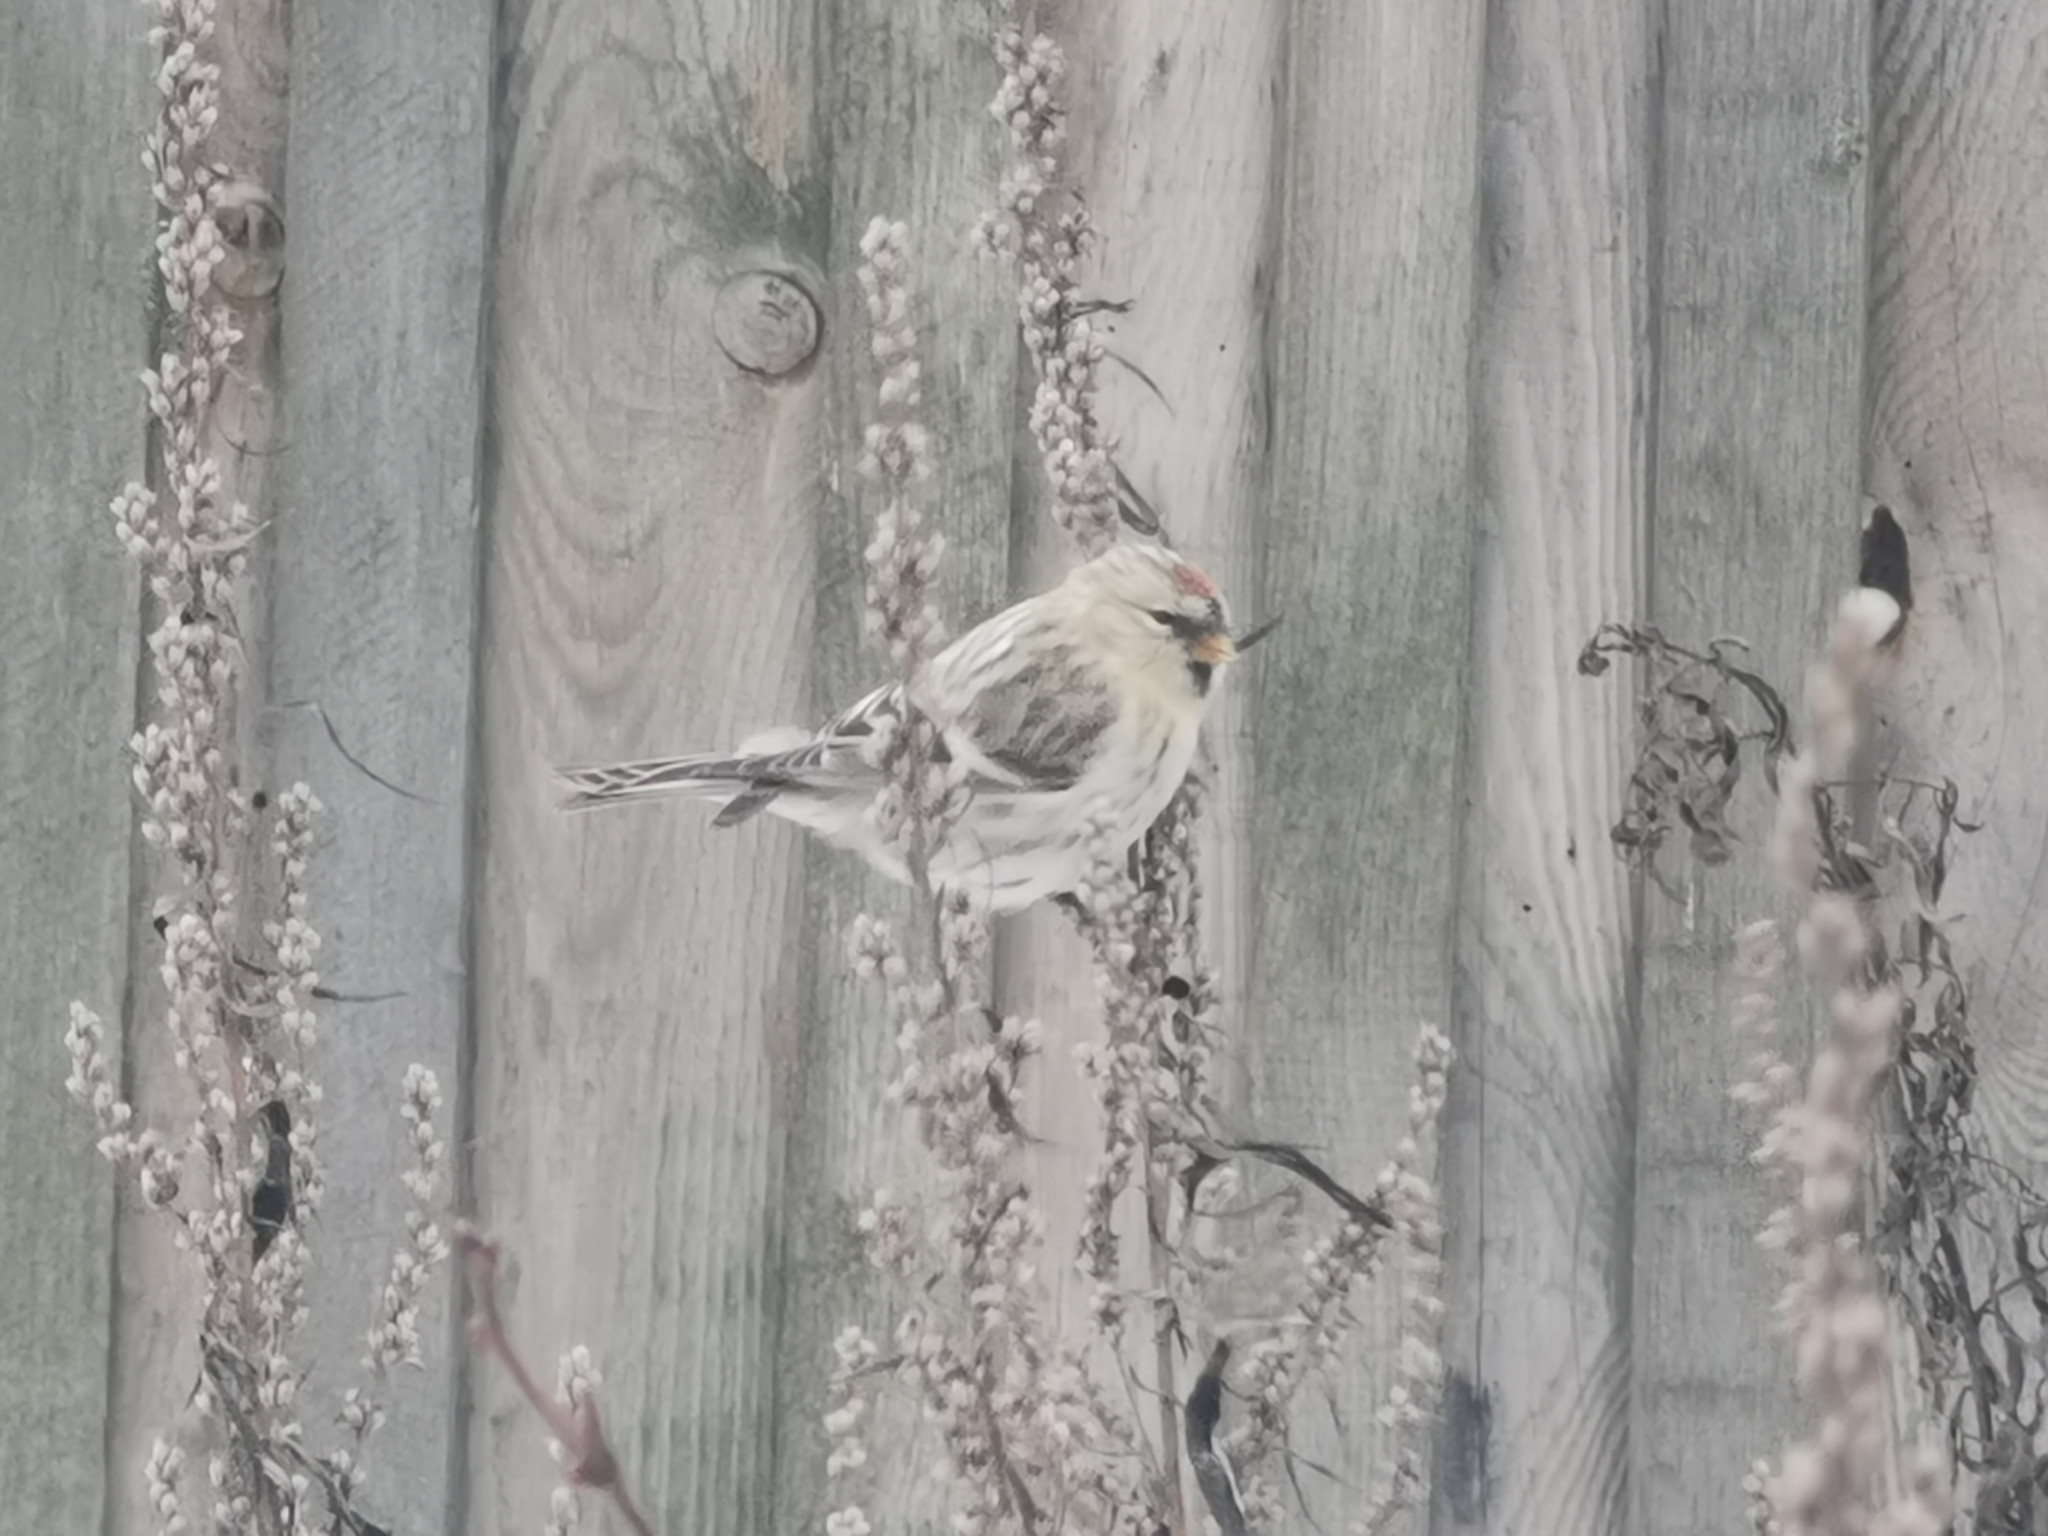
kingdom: Animalia
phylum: Chordata
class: Aves
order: Passeriformes
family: Fringillidae
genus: Acanthis
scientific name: Acanthis flammea
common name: Common redpoll
